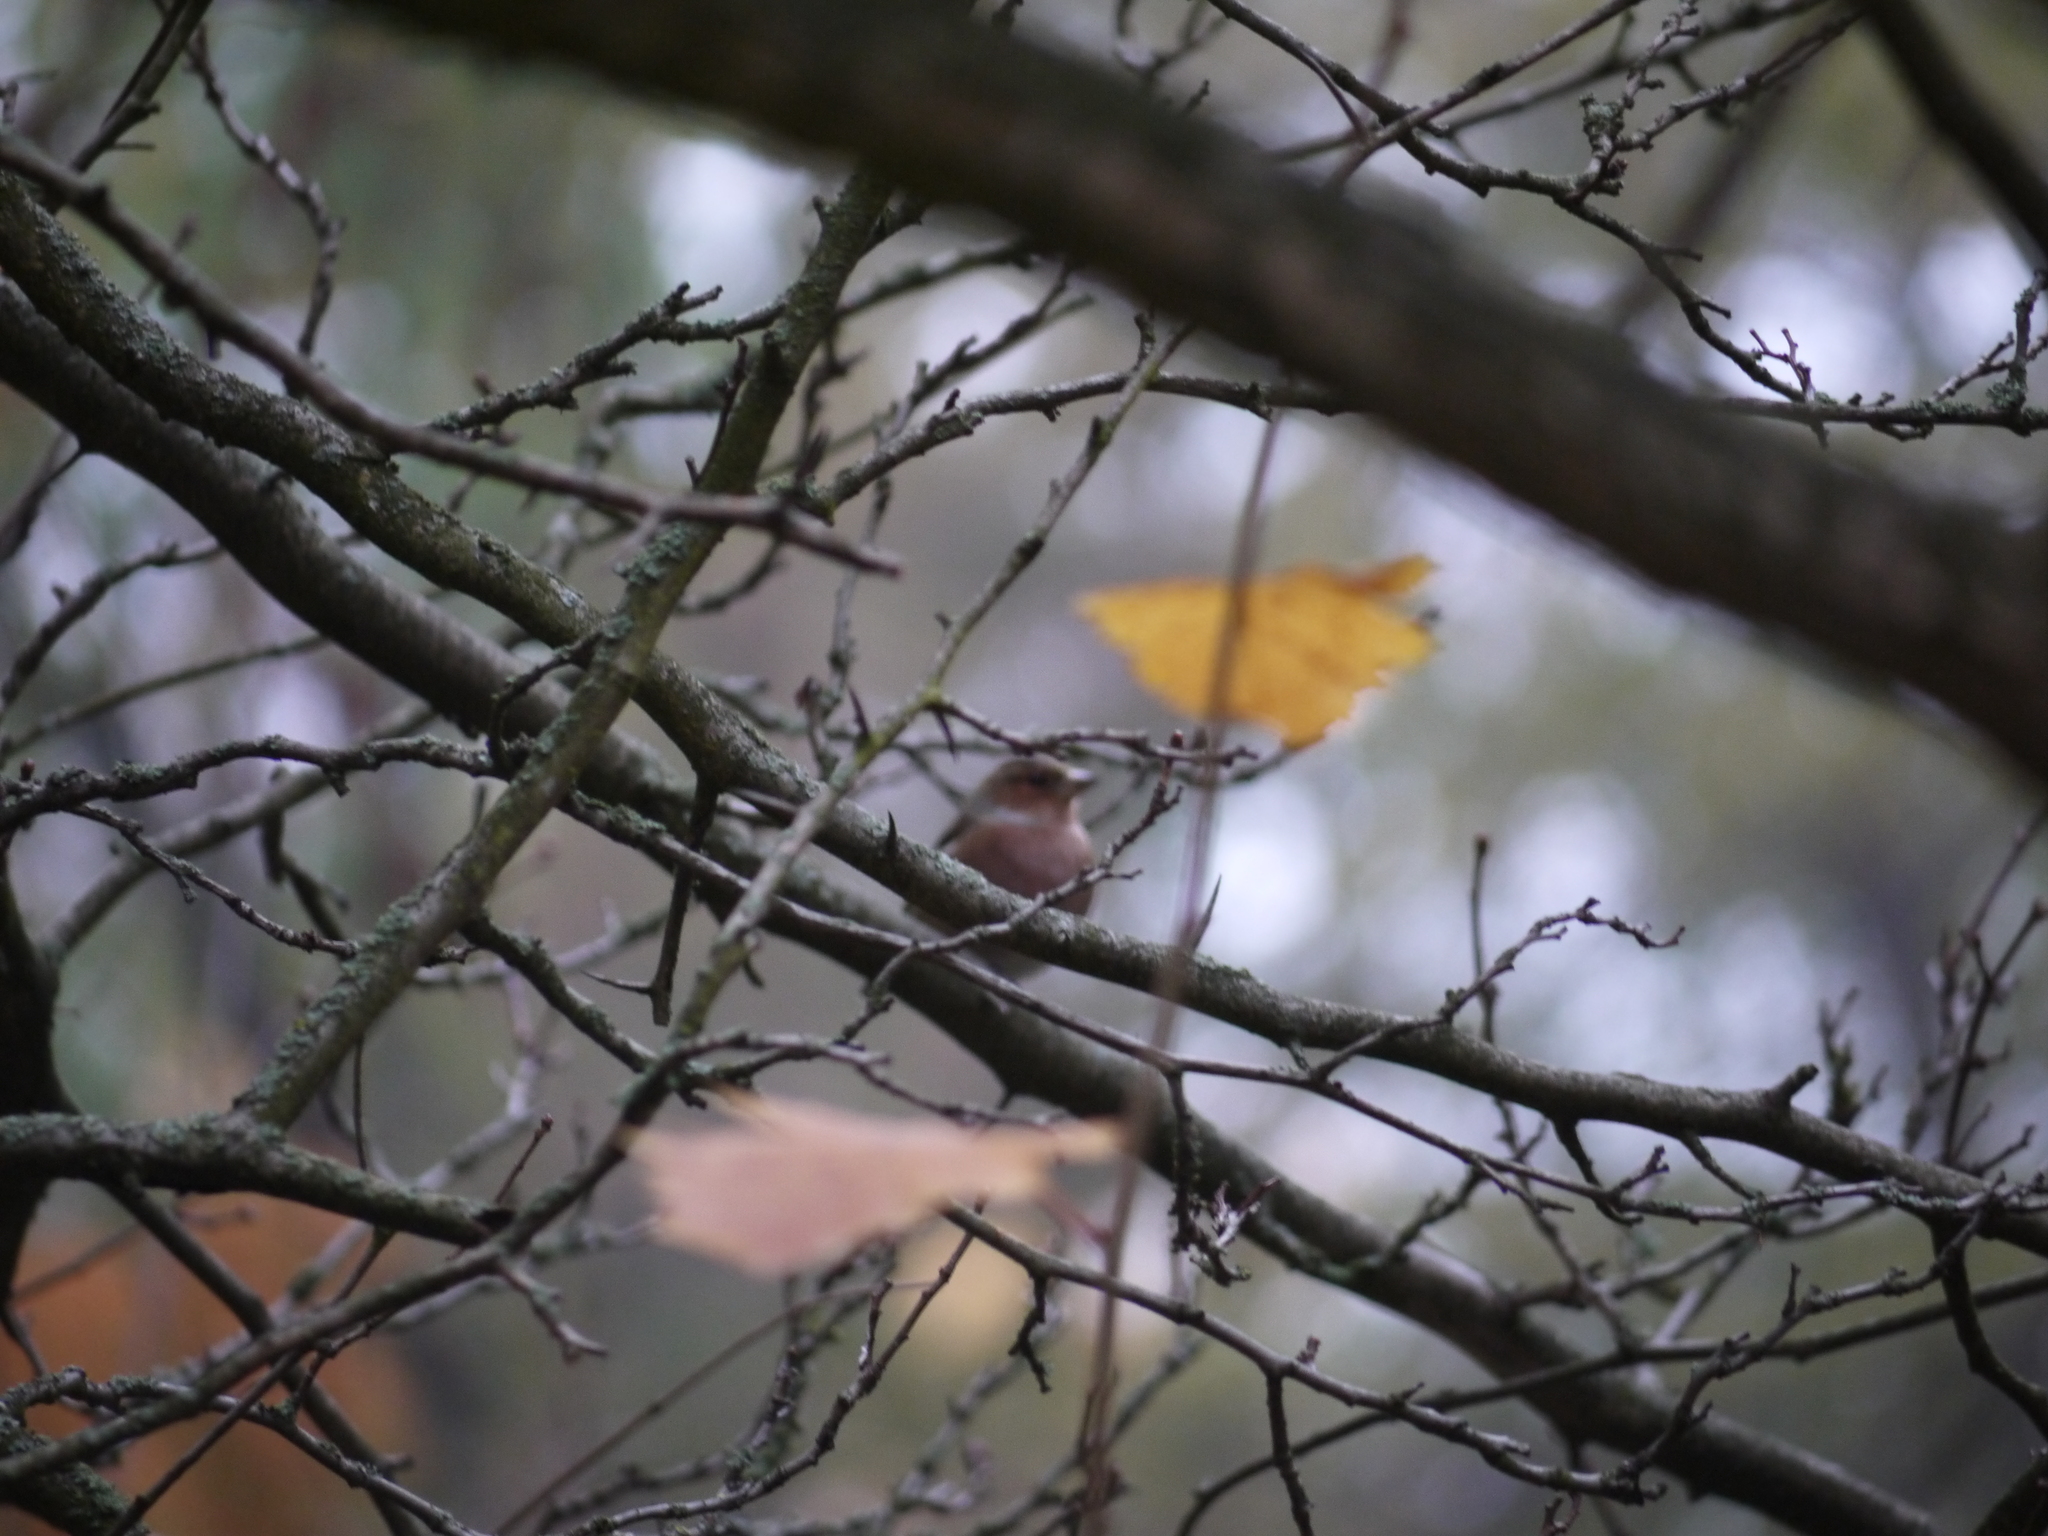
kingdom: Animalia
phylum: Chordata
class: Aves
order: Passeriformes
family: Fringillidae
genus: Fringilla
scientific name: Fringilla coelebs
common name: Common chaffinch
